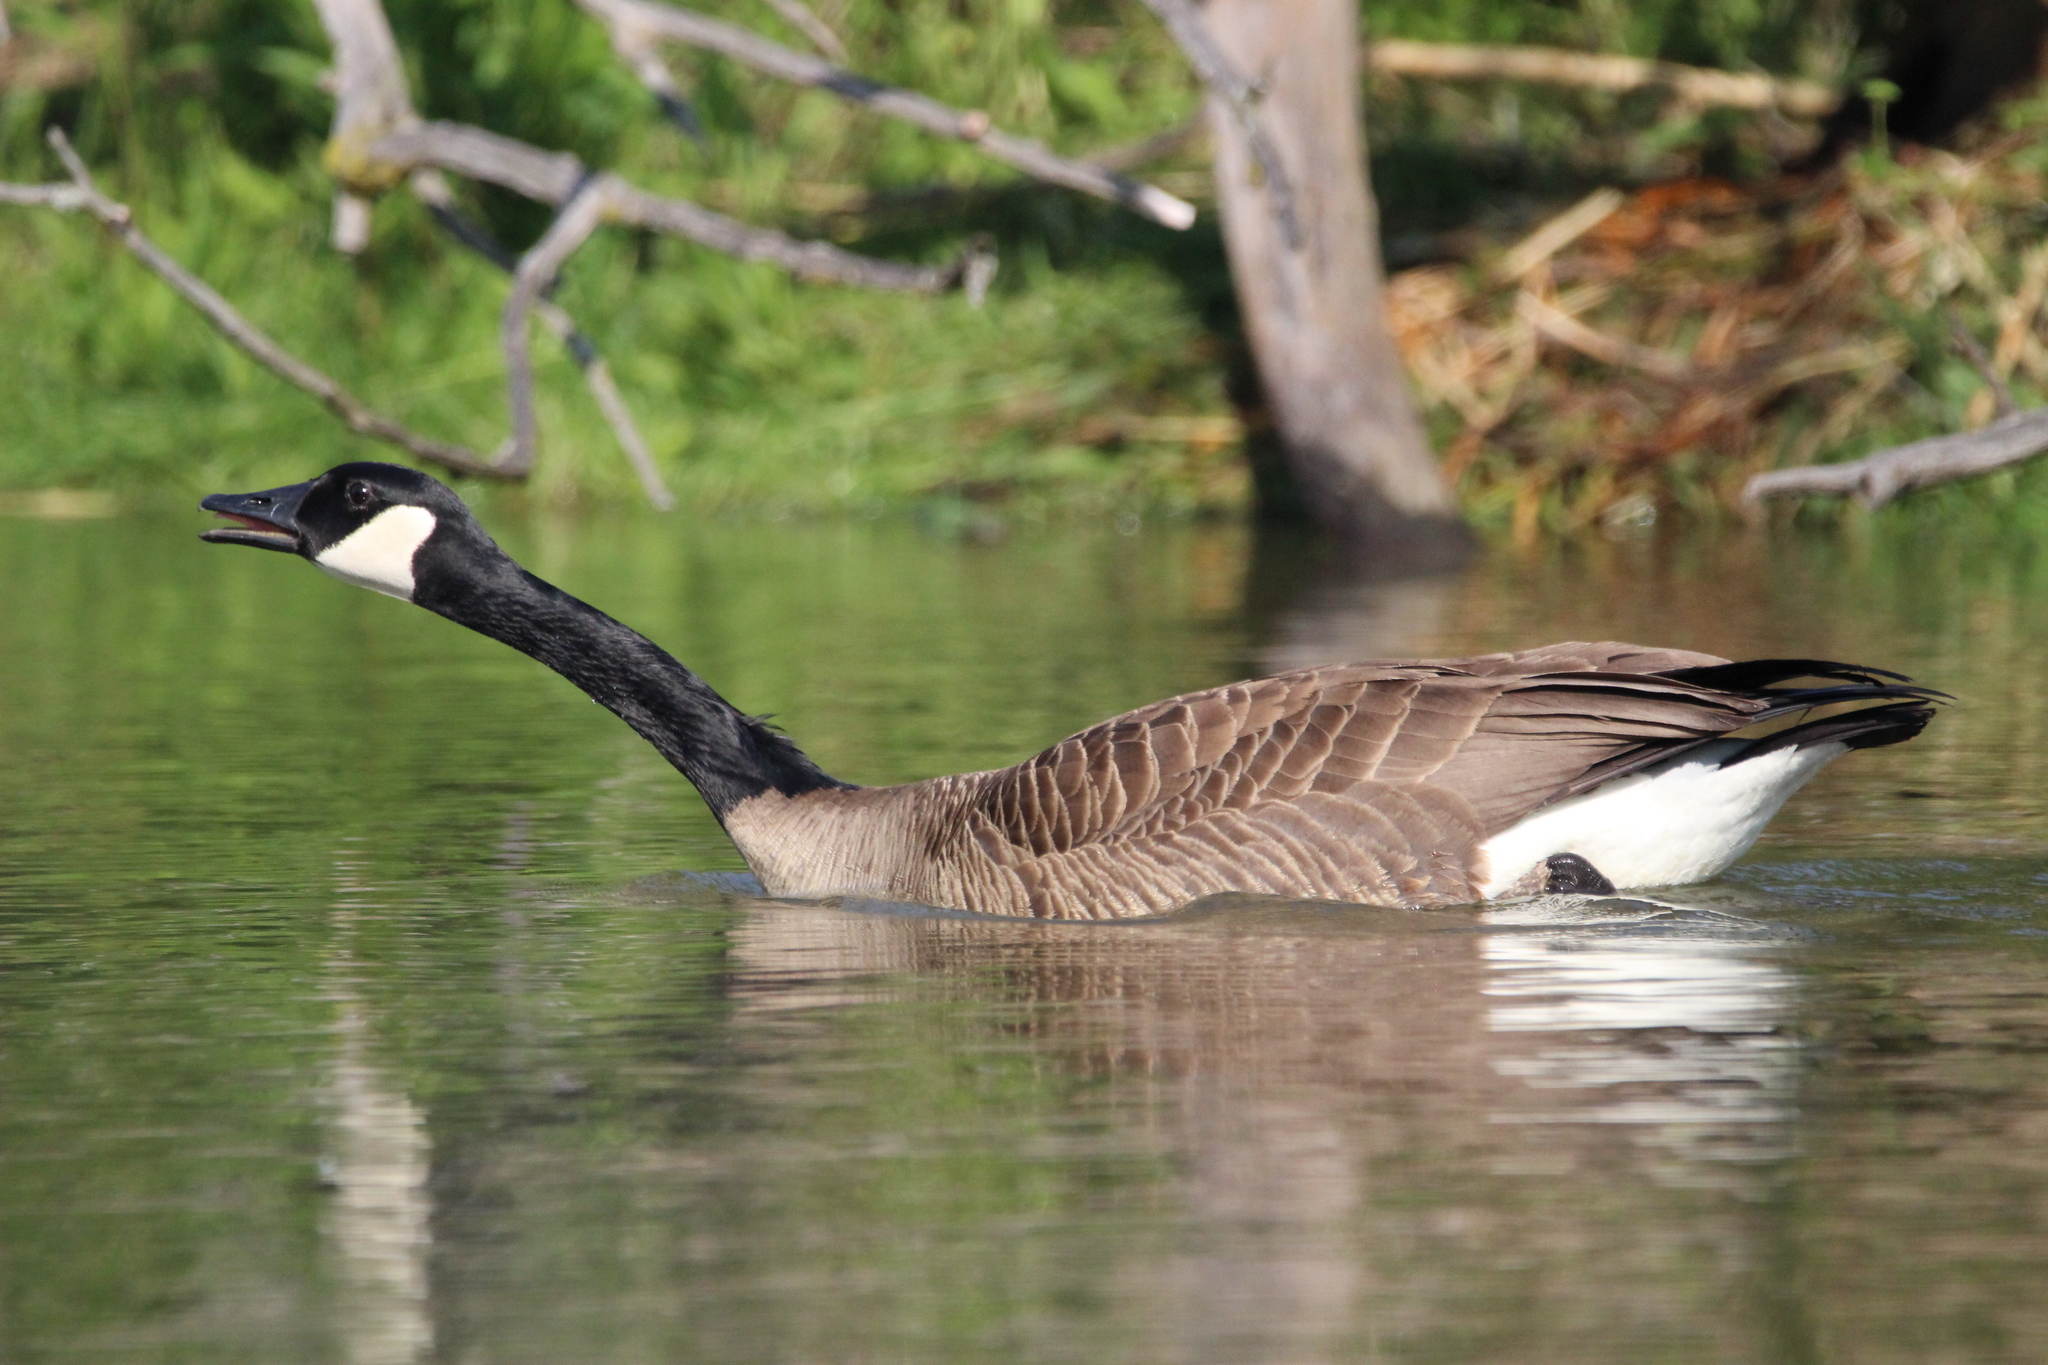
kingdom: Animalia
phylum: Chordata
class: Aves
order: Anseriformes
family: Anatidae
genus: Branta
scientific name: Branta canadensis
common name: Canada goose
